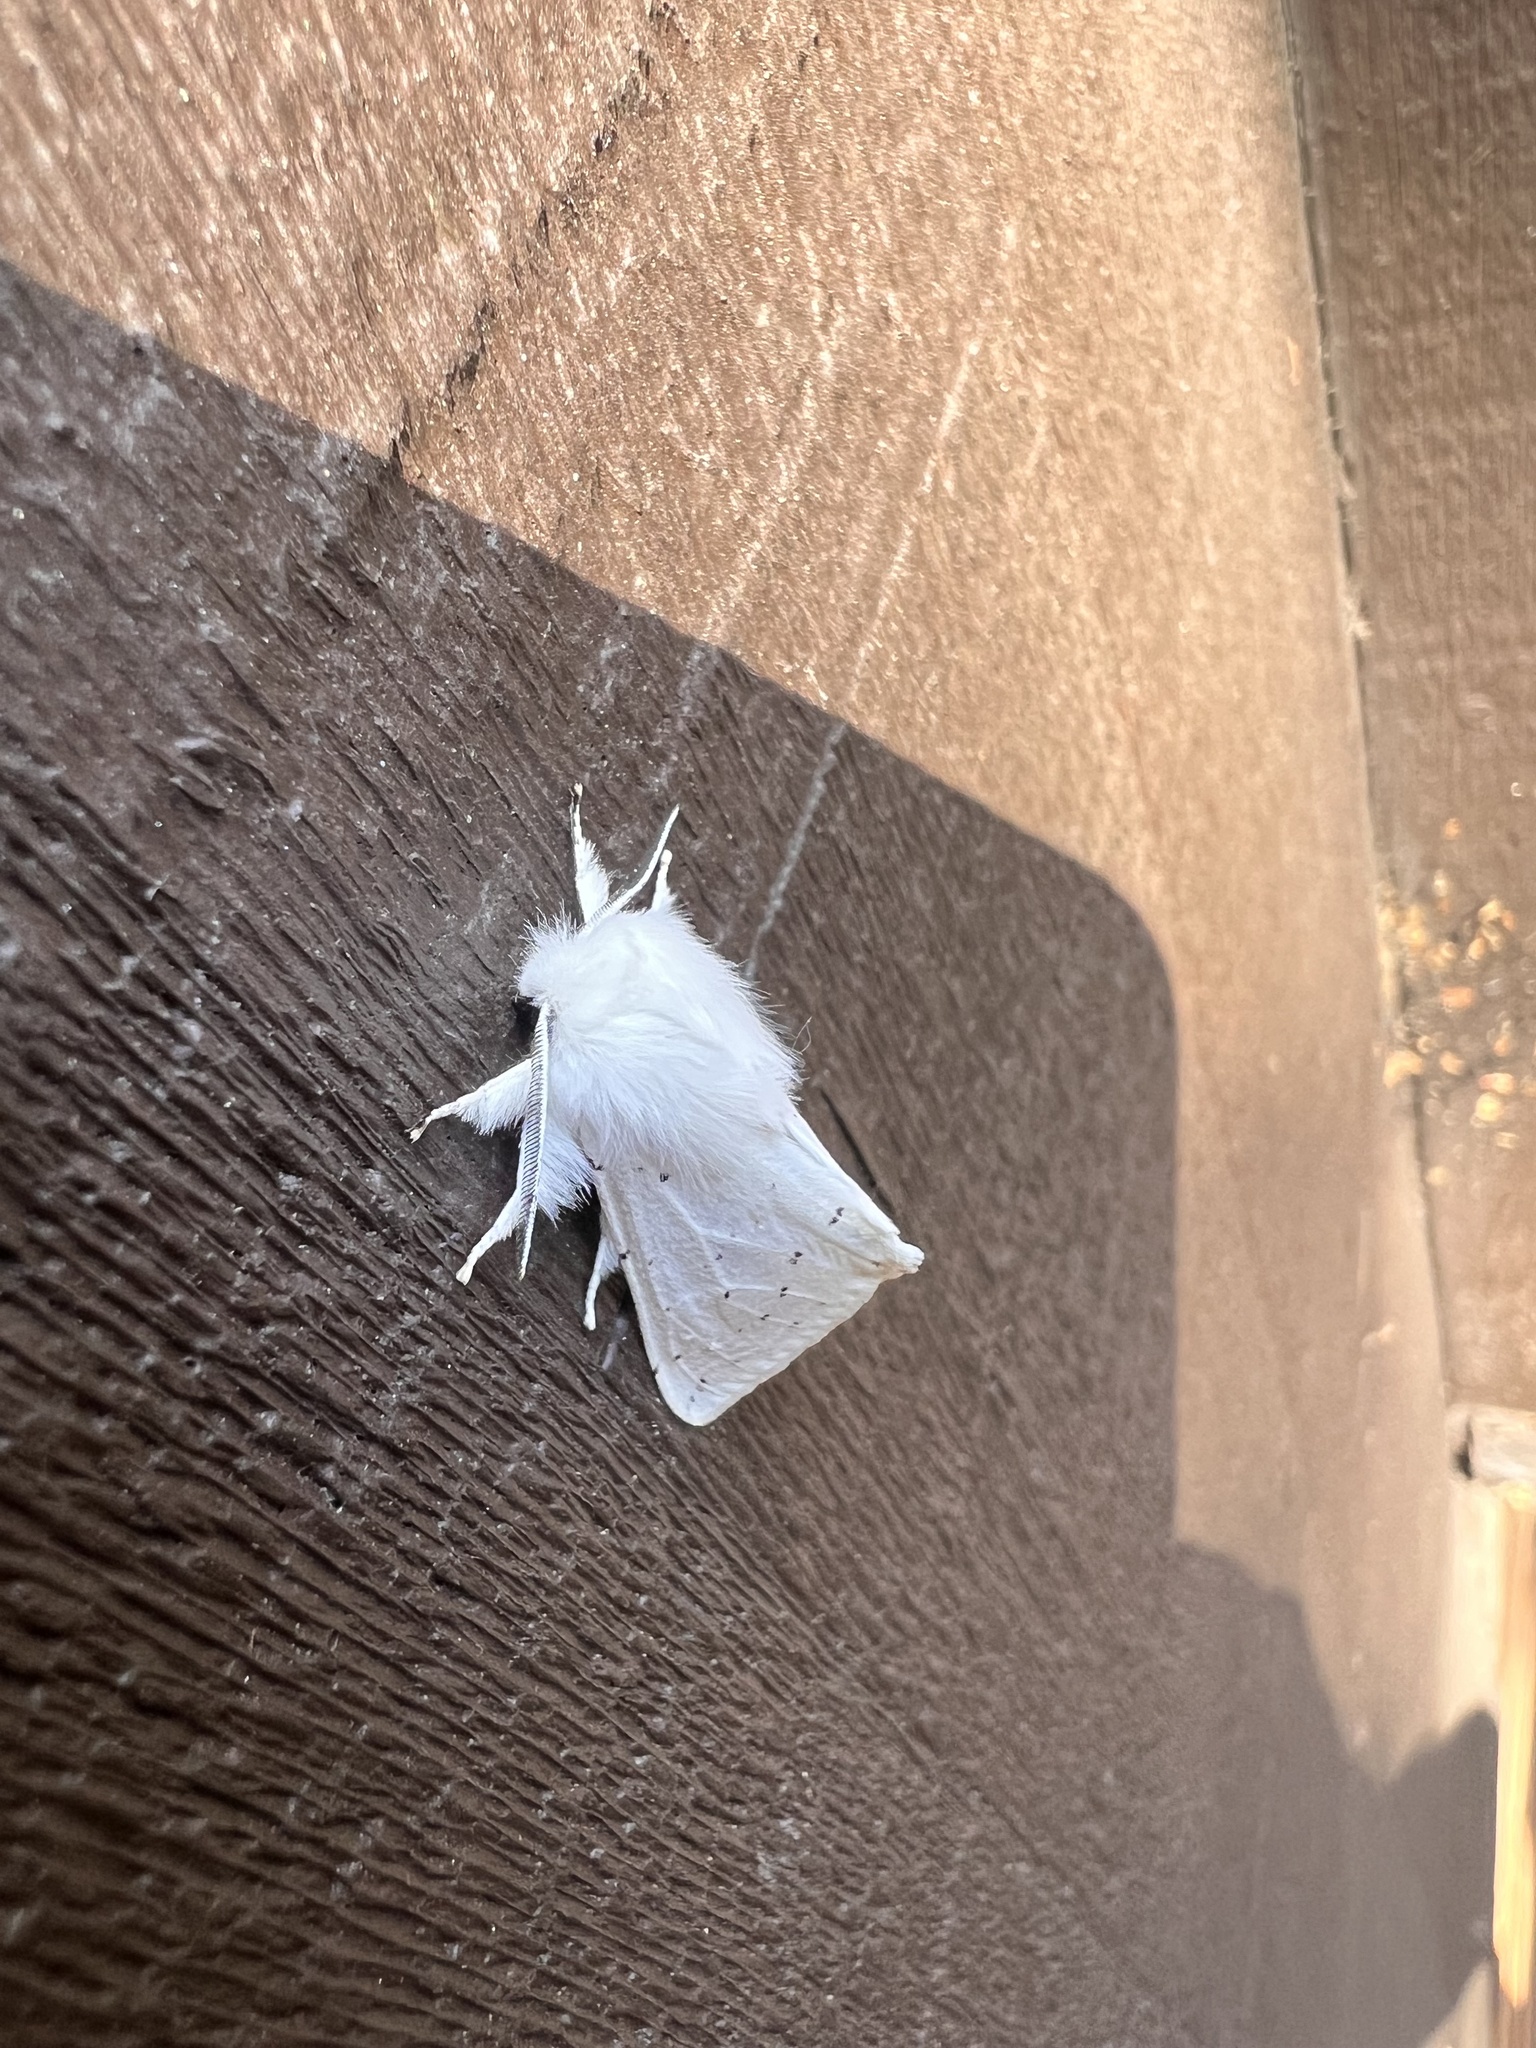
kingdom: Animalia
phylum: Arthropoda
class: Insecta
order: Lepidoptera
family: Erebidae
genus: Spilosoma
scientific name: Spilosoma vestalis
